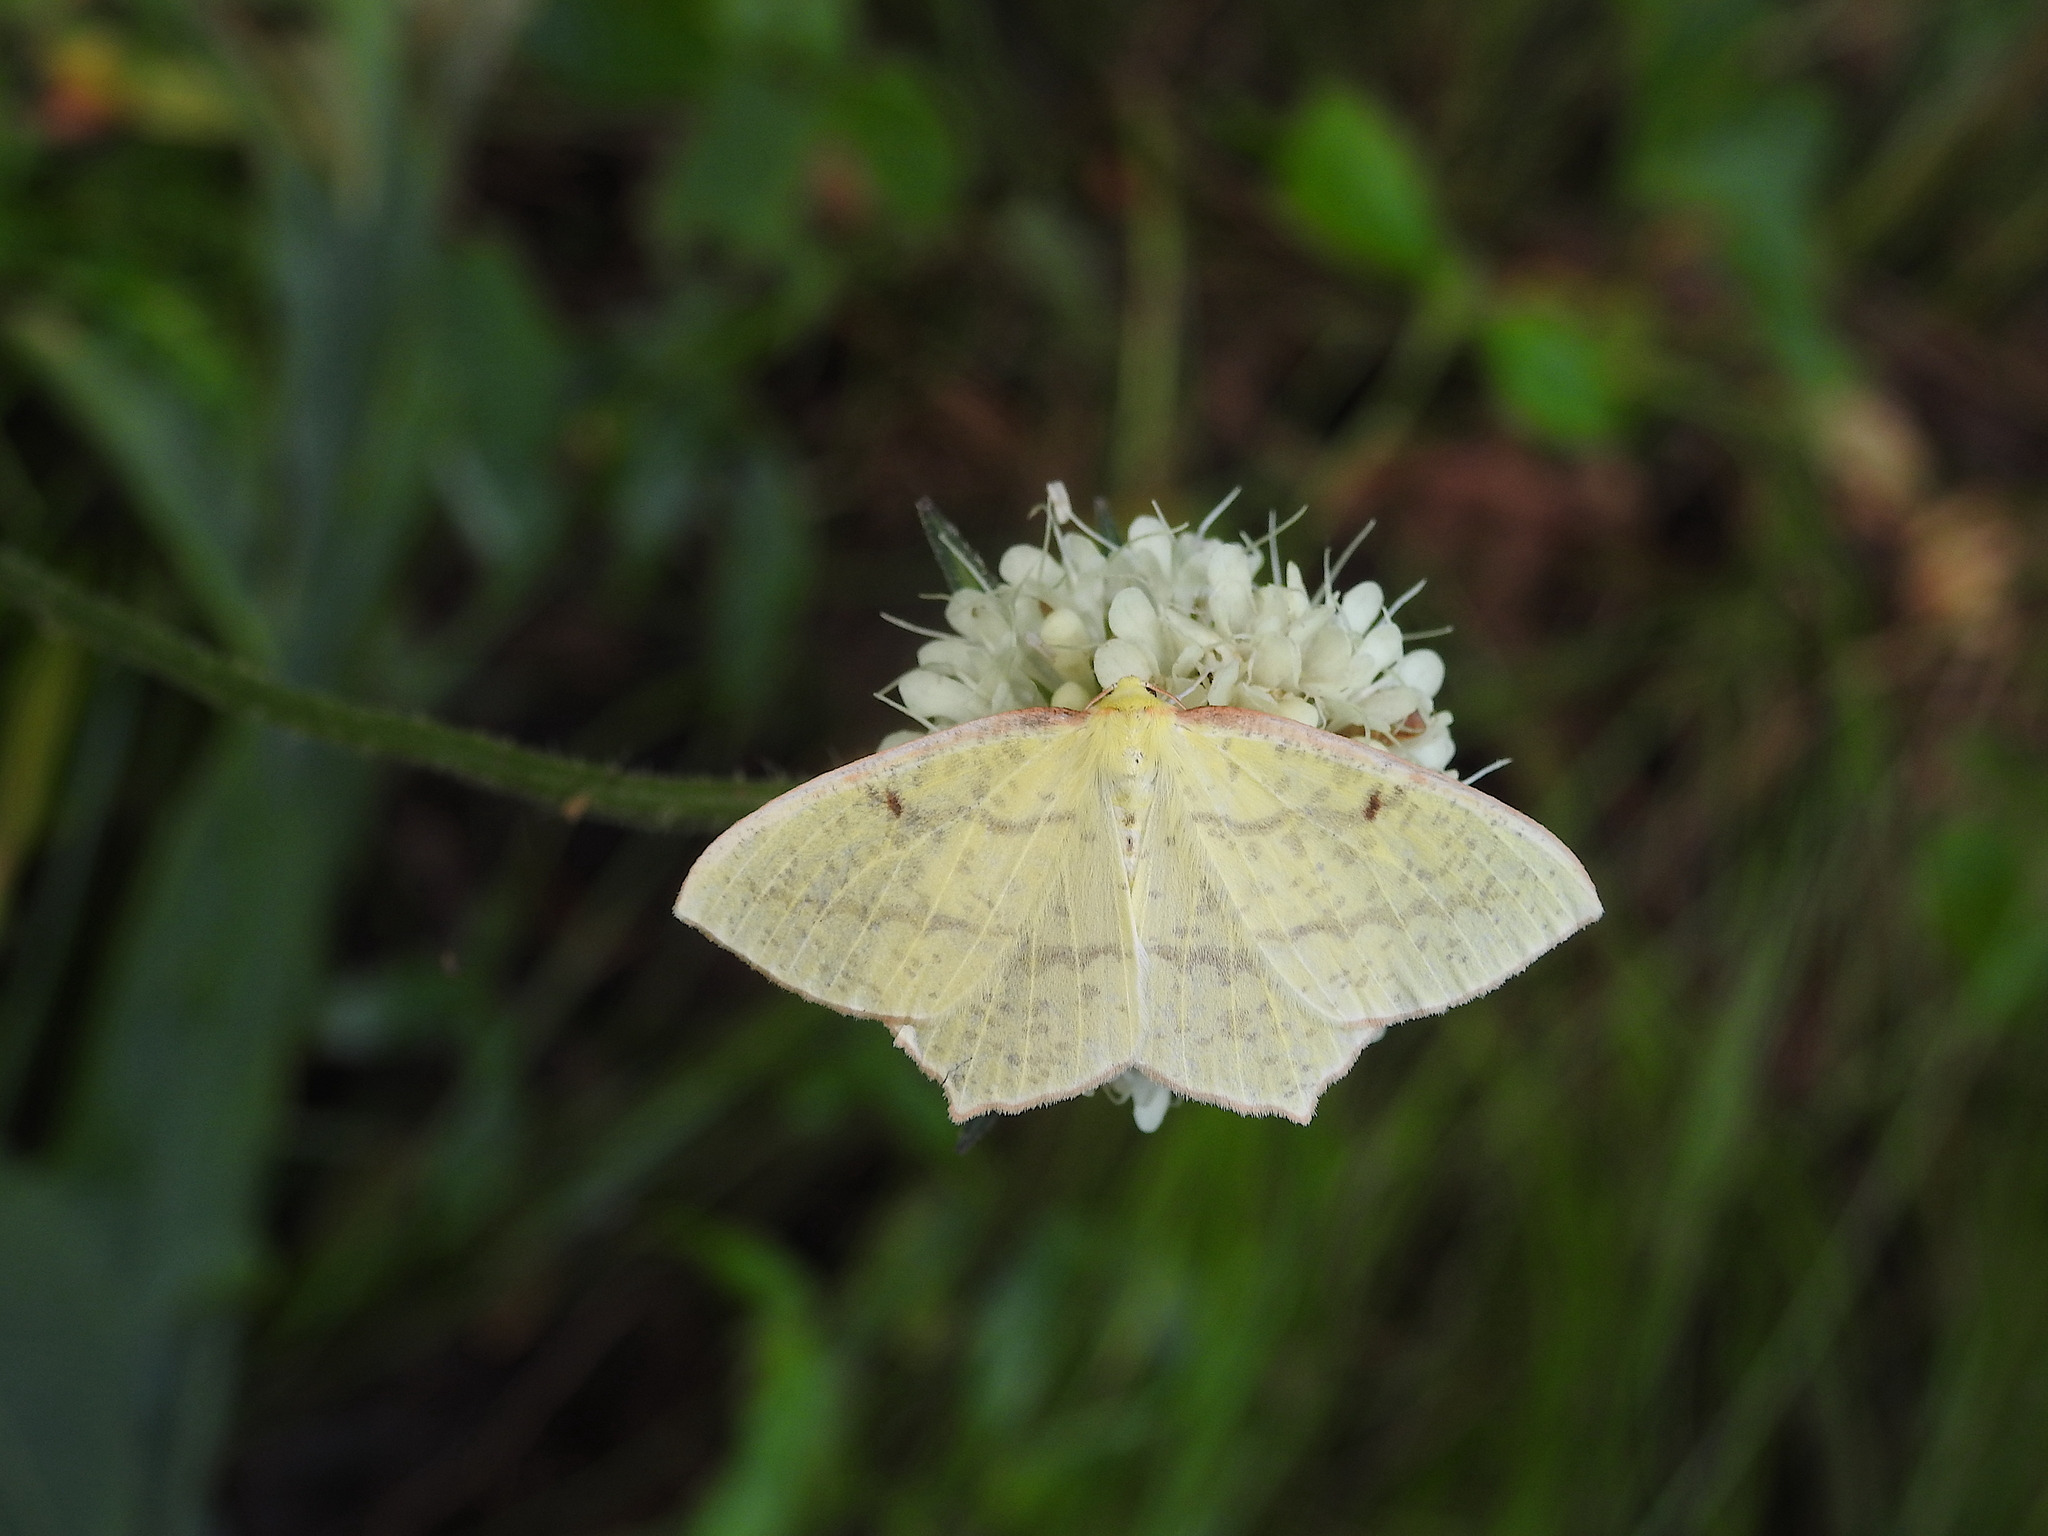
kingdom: Plantae
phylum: Tracheophyta
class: Magnoliopsida
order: Dipsacales
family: Caprifoliaceae
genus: Dipsacus
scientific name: Dipsacus inermis
